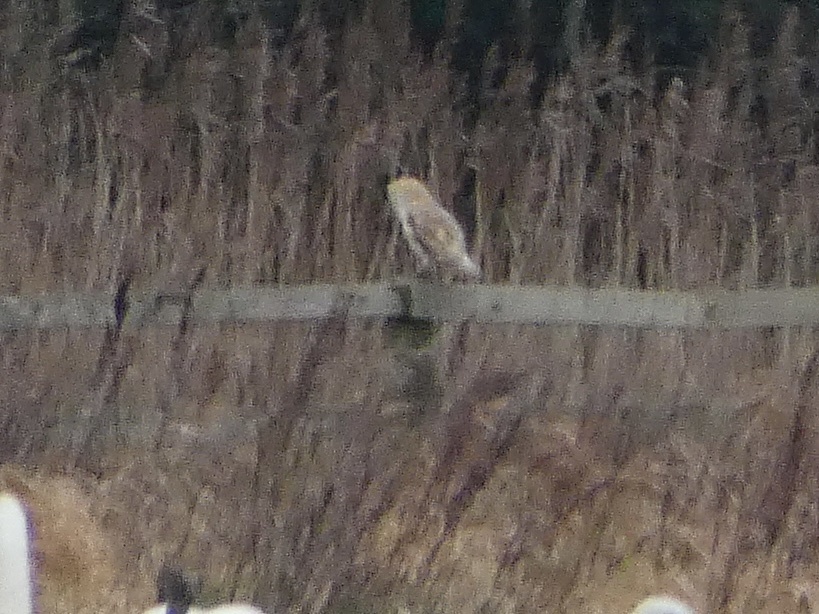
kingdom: Animalia
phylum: Chordata
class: Aves
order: Strigiformes
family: Tytonidae
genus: Tyto
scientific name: Tyto alba
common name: Barn owl
